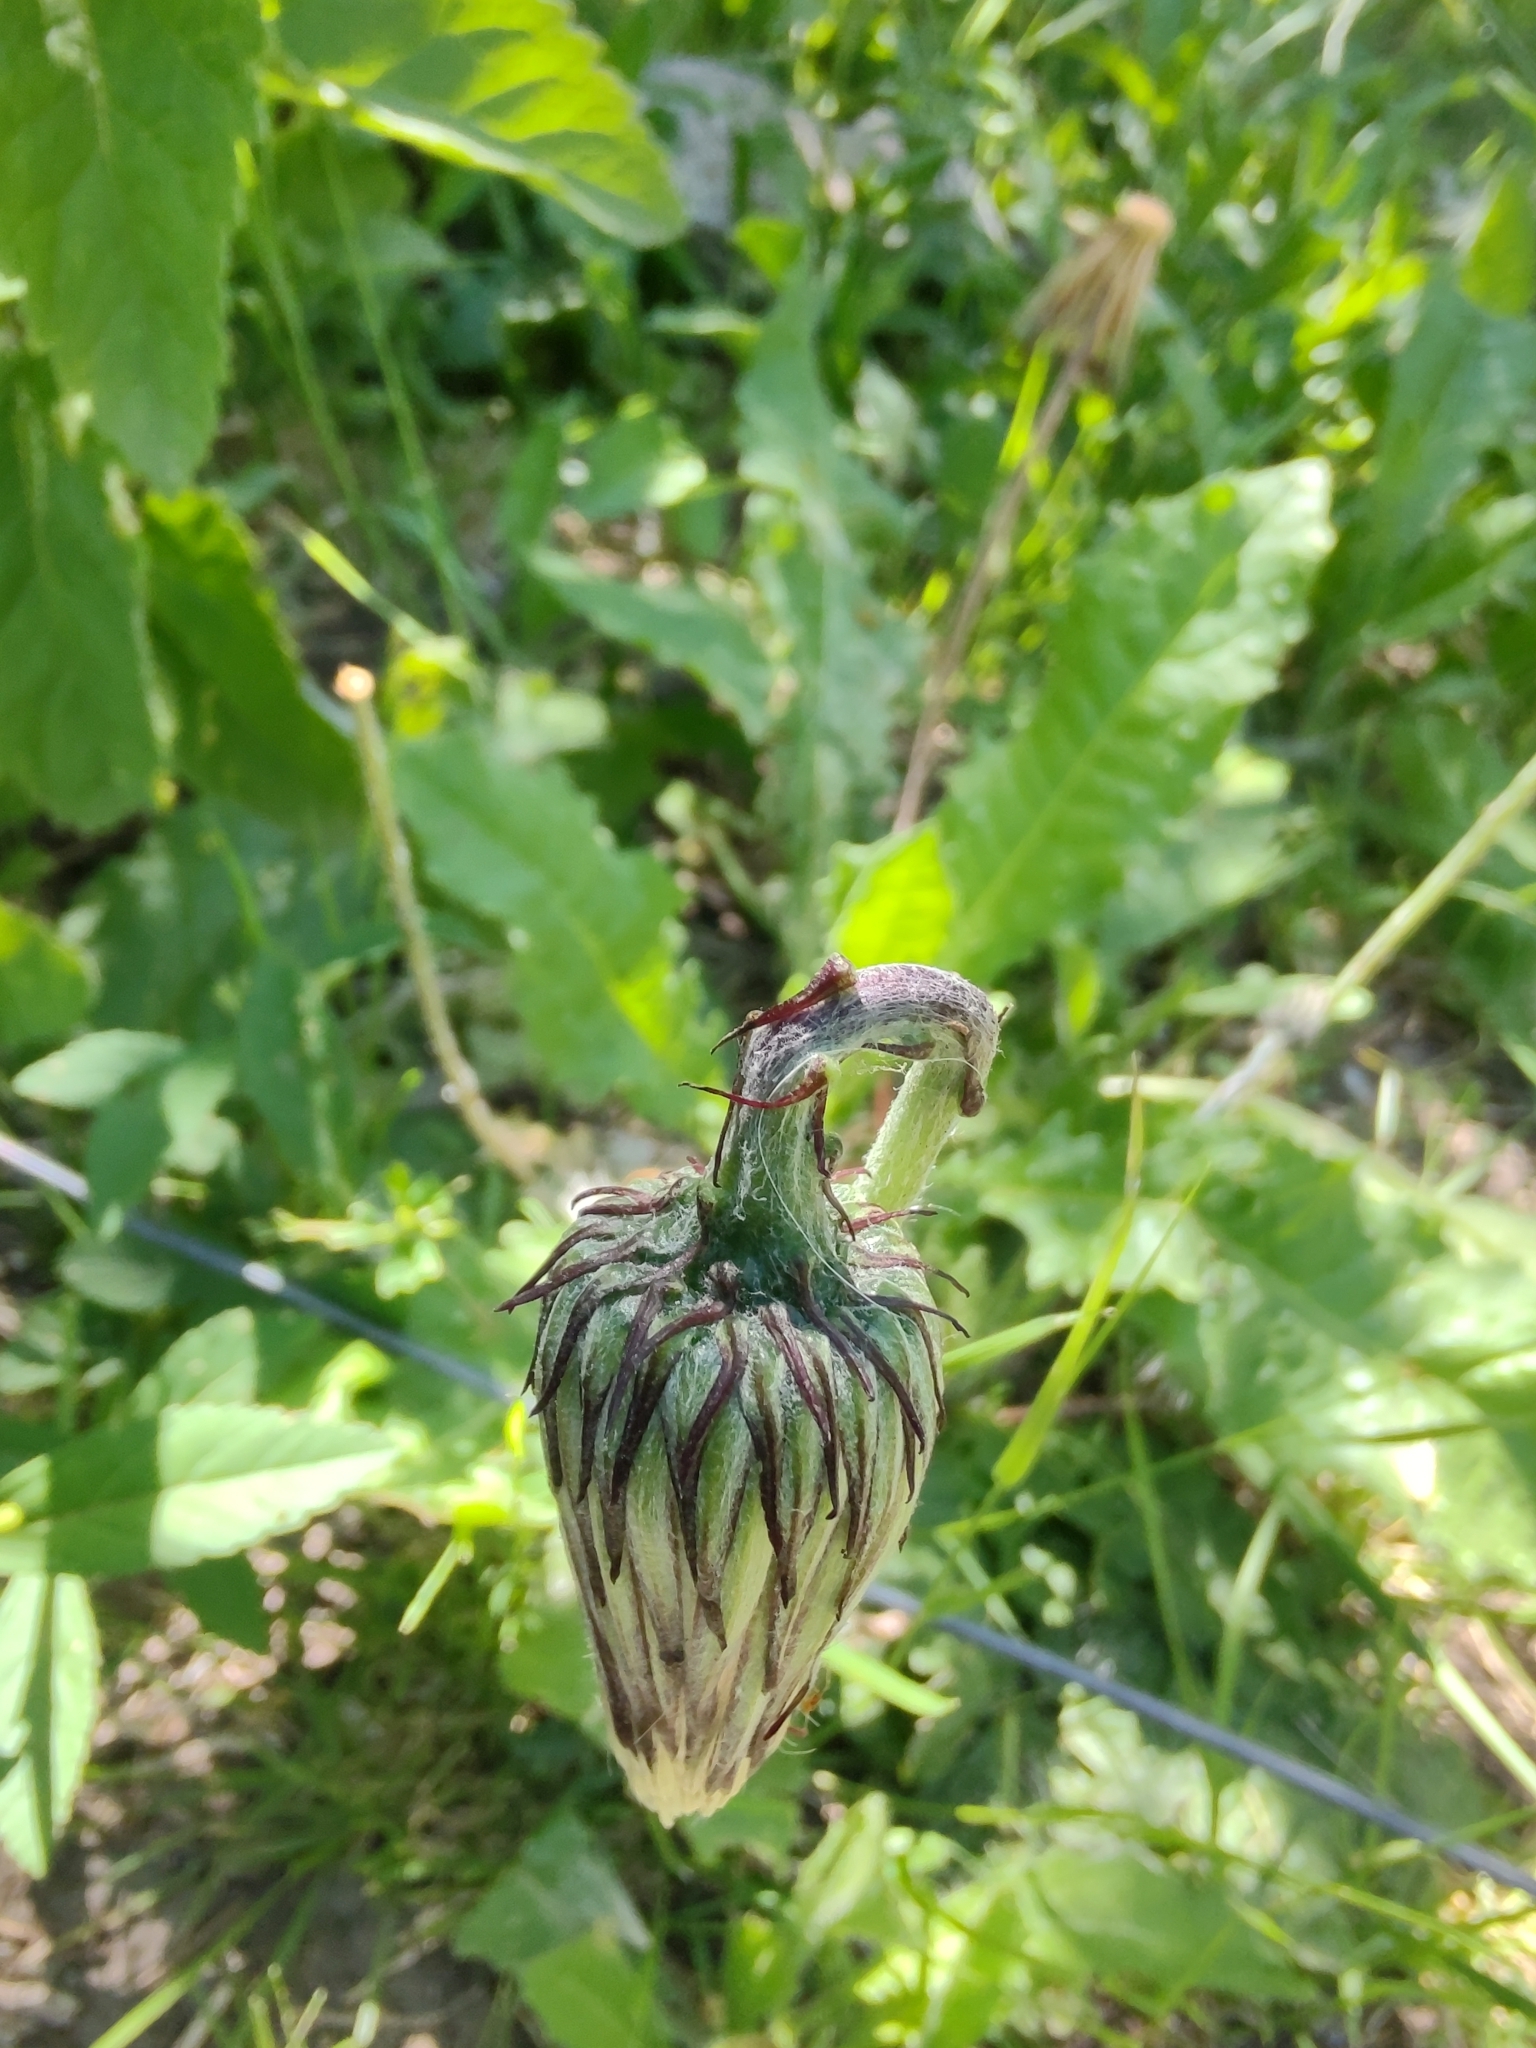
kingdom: Plantae
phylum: Tracheophyta
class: Magnoliopsida
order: Asterales
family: Asteraceae
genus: Chaptalia
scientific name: Chaptalia arechavaletae
